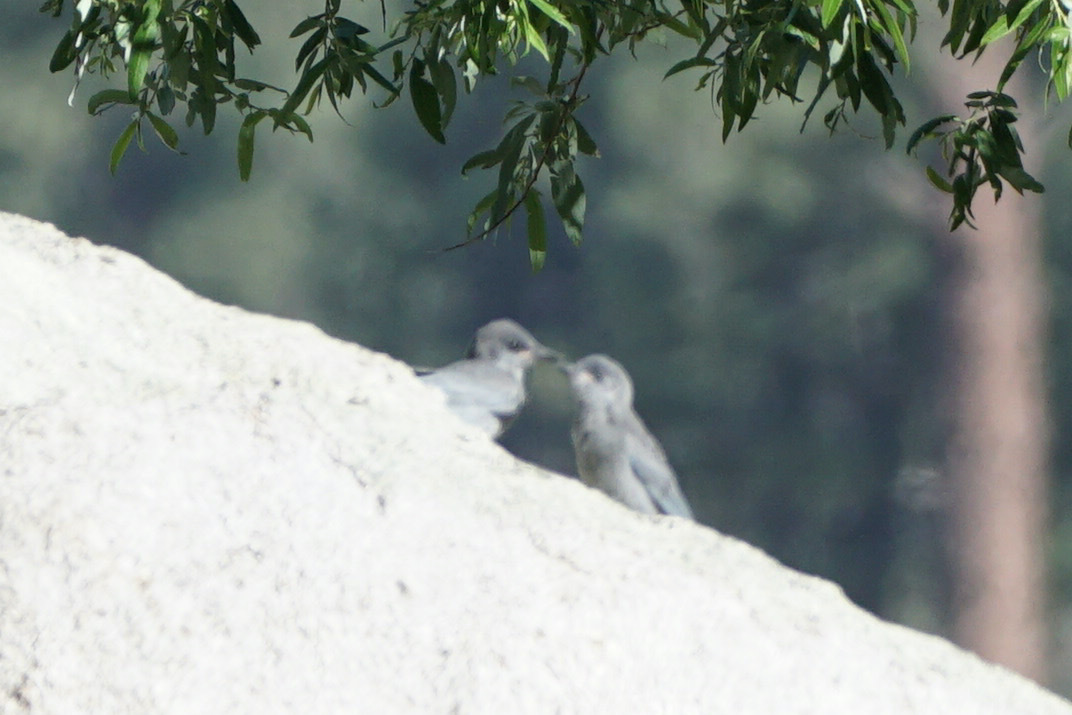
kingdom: Animalia
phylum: Chordata
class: Aves
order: Passeriformes
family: Corvidae
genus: Gymnorhinus
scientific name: Gymnorhinus cyanocephalus
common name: Pinyon jay
